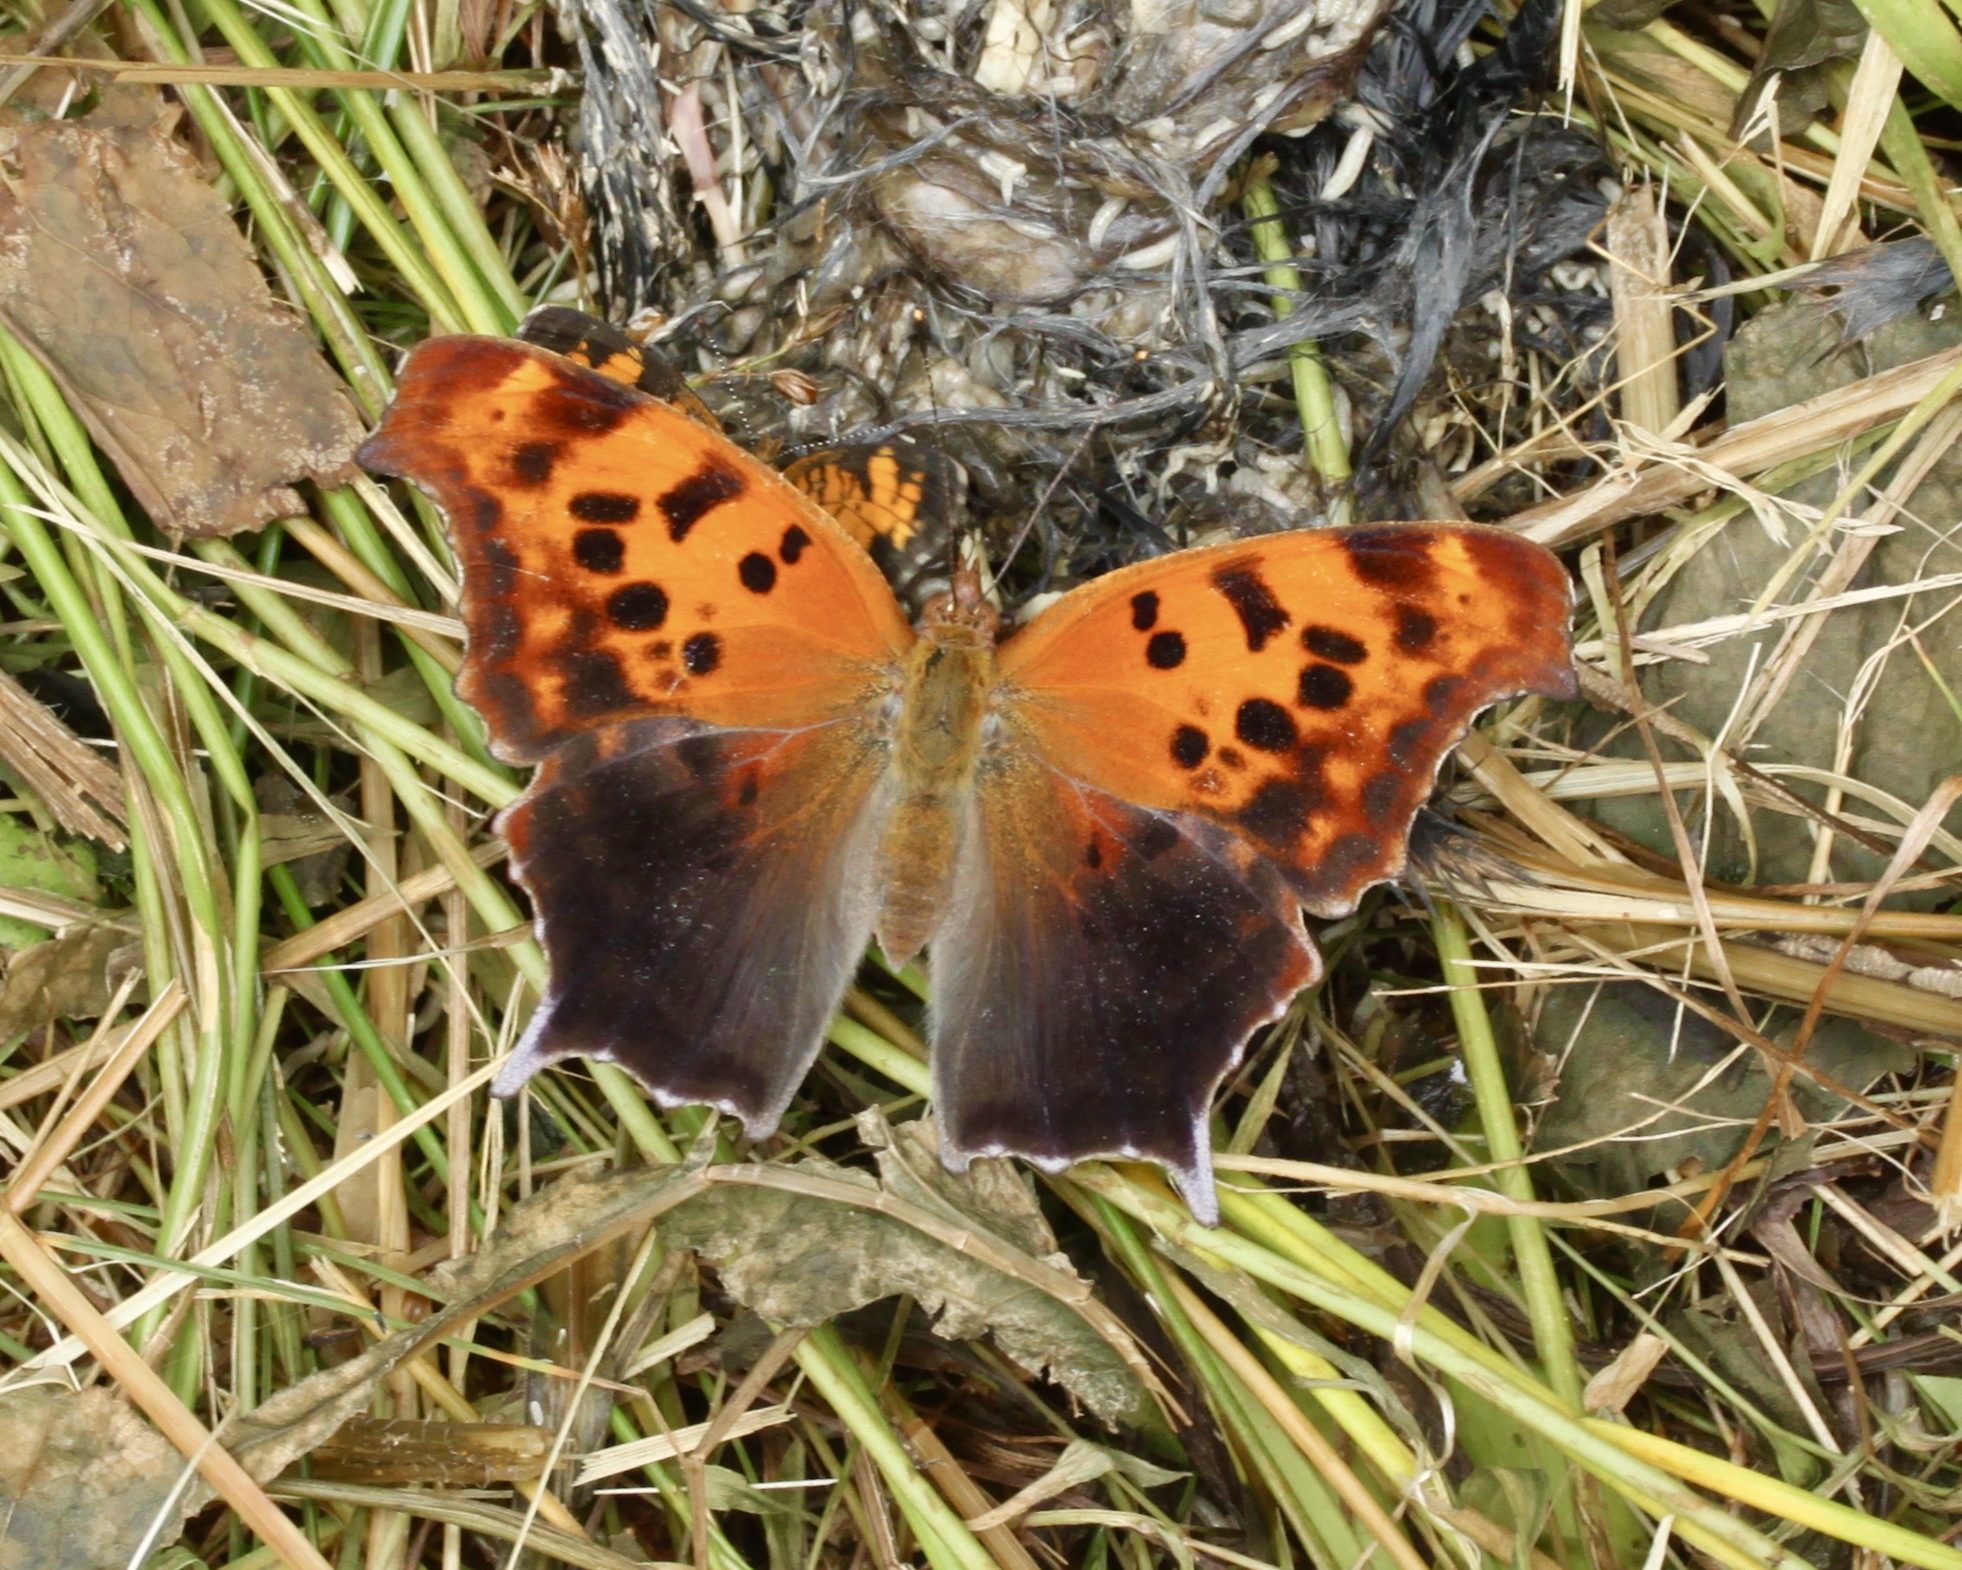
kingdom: Animalia
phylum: Arthropoda
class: Insecta
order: Lepidoptera
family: Nymphalidae
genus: Polygonia
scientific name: Polygonia interrogationis
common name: Question mark
